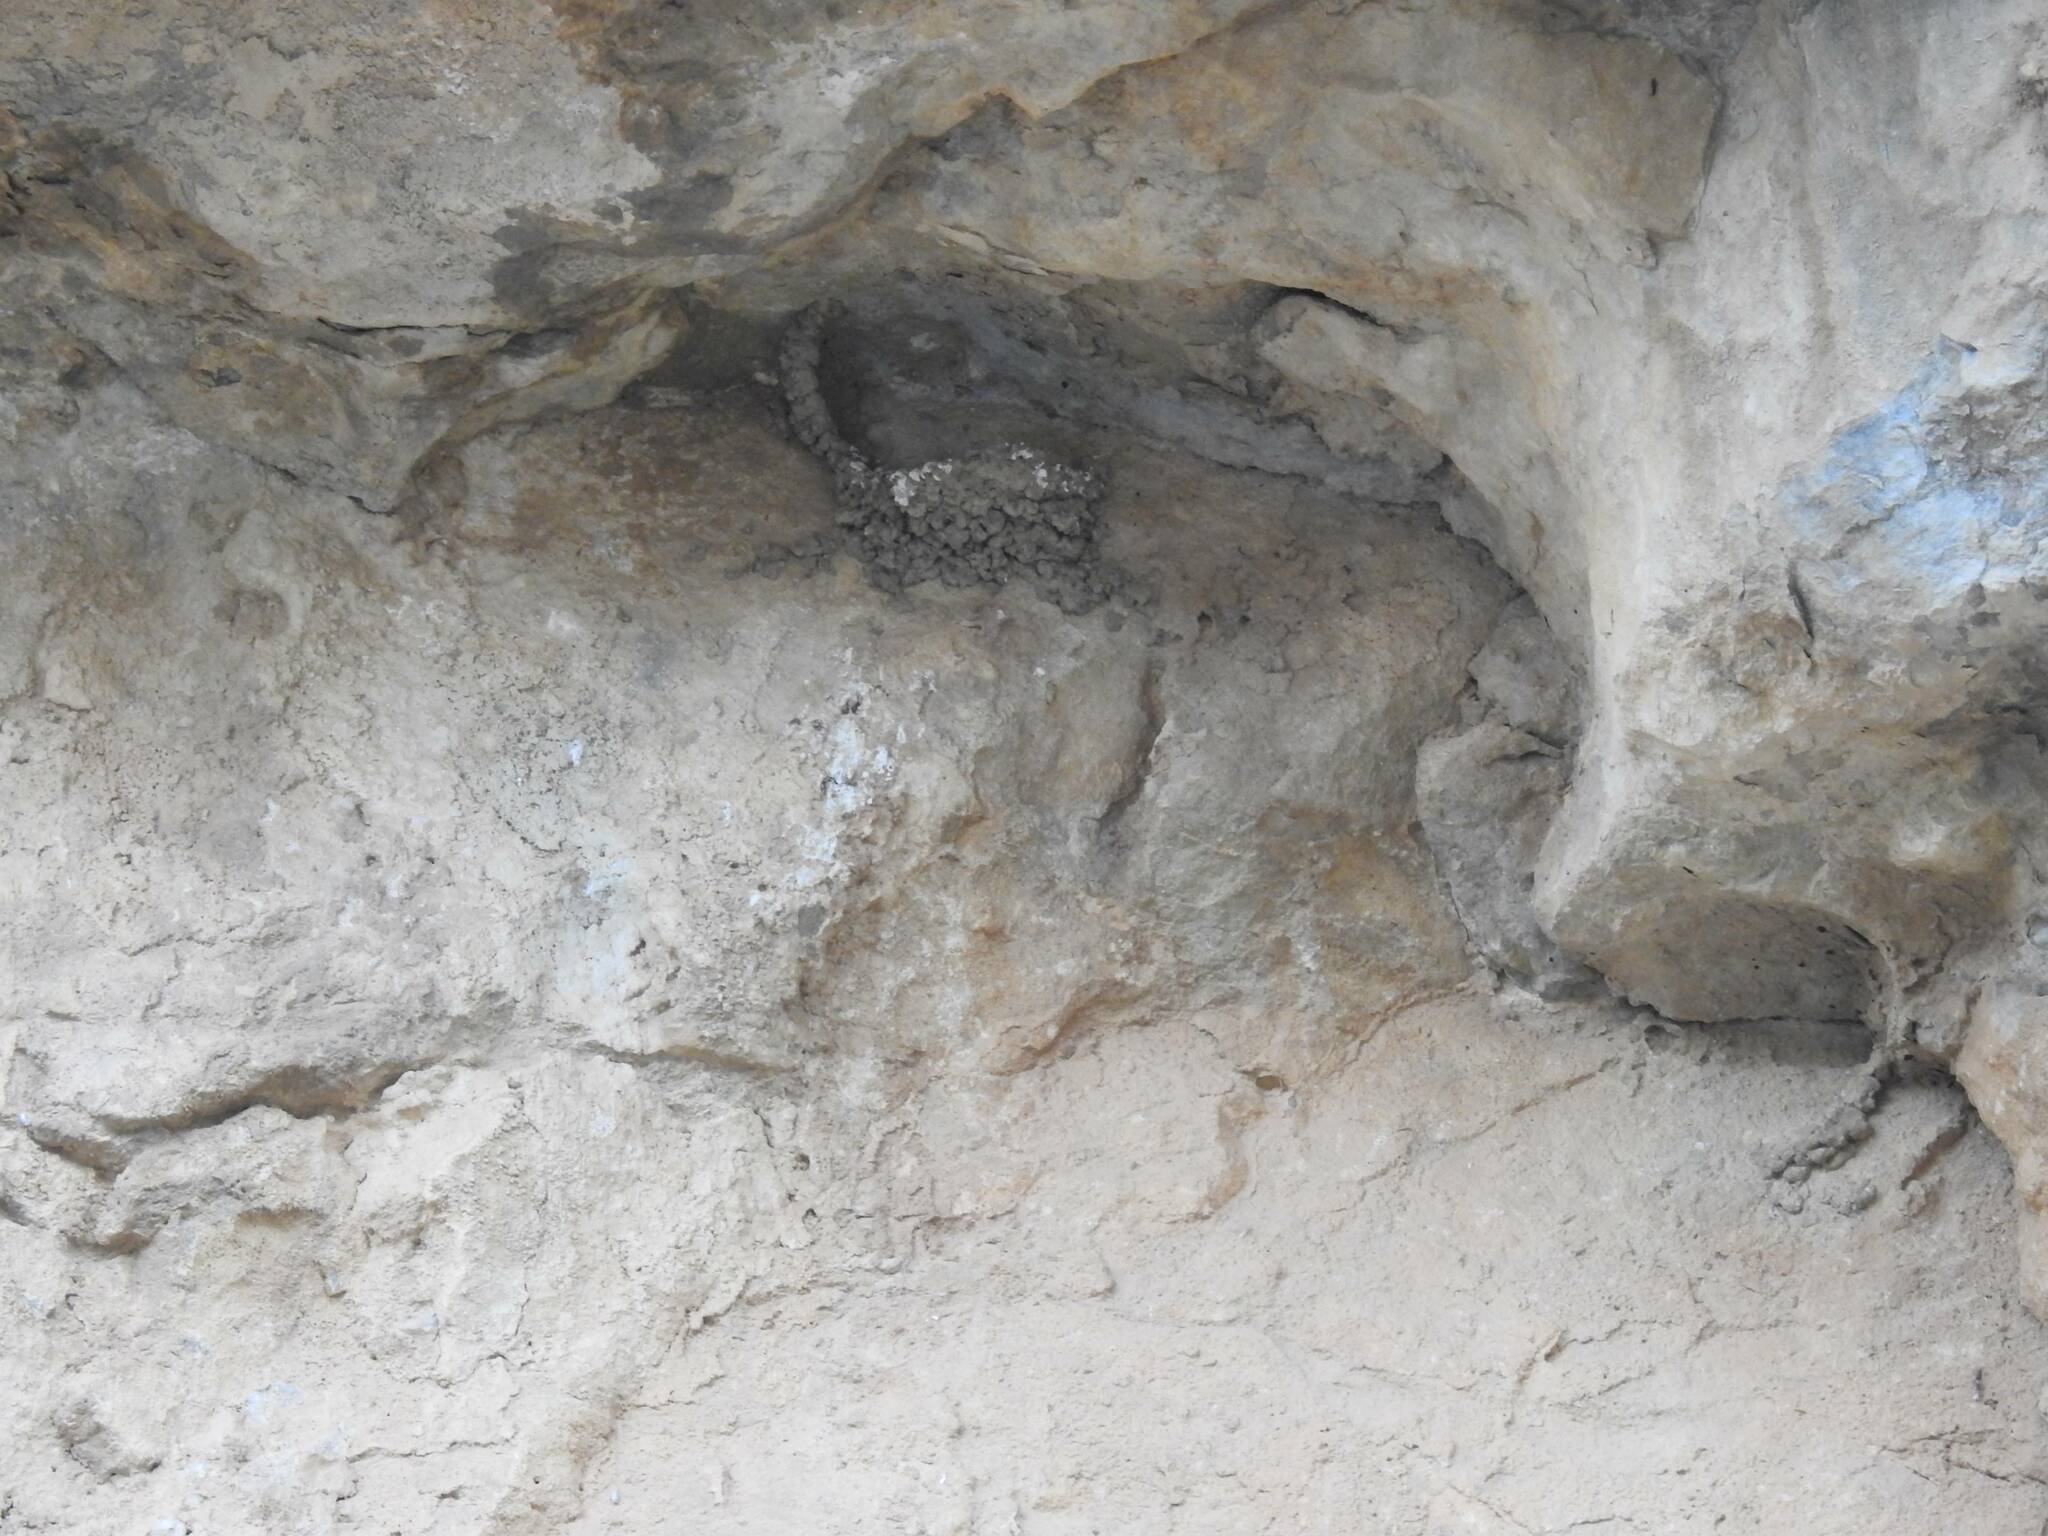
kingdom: Animalia
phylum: Chordata
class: Aves
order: Passeriformes
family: Hirundinidae
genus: Ptyonoprogne
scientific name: Ptyonoprogne rupestris
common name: Eurasian crag martin
